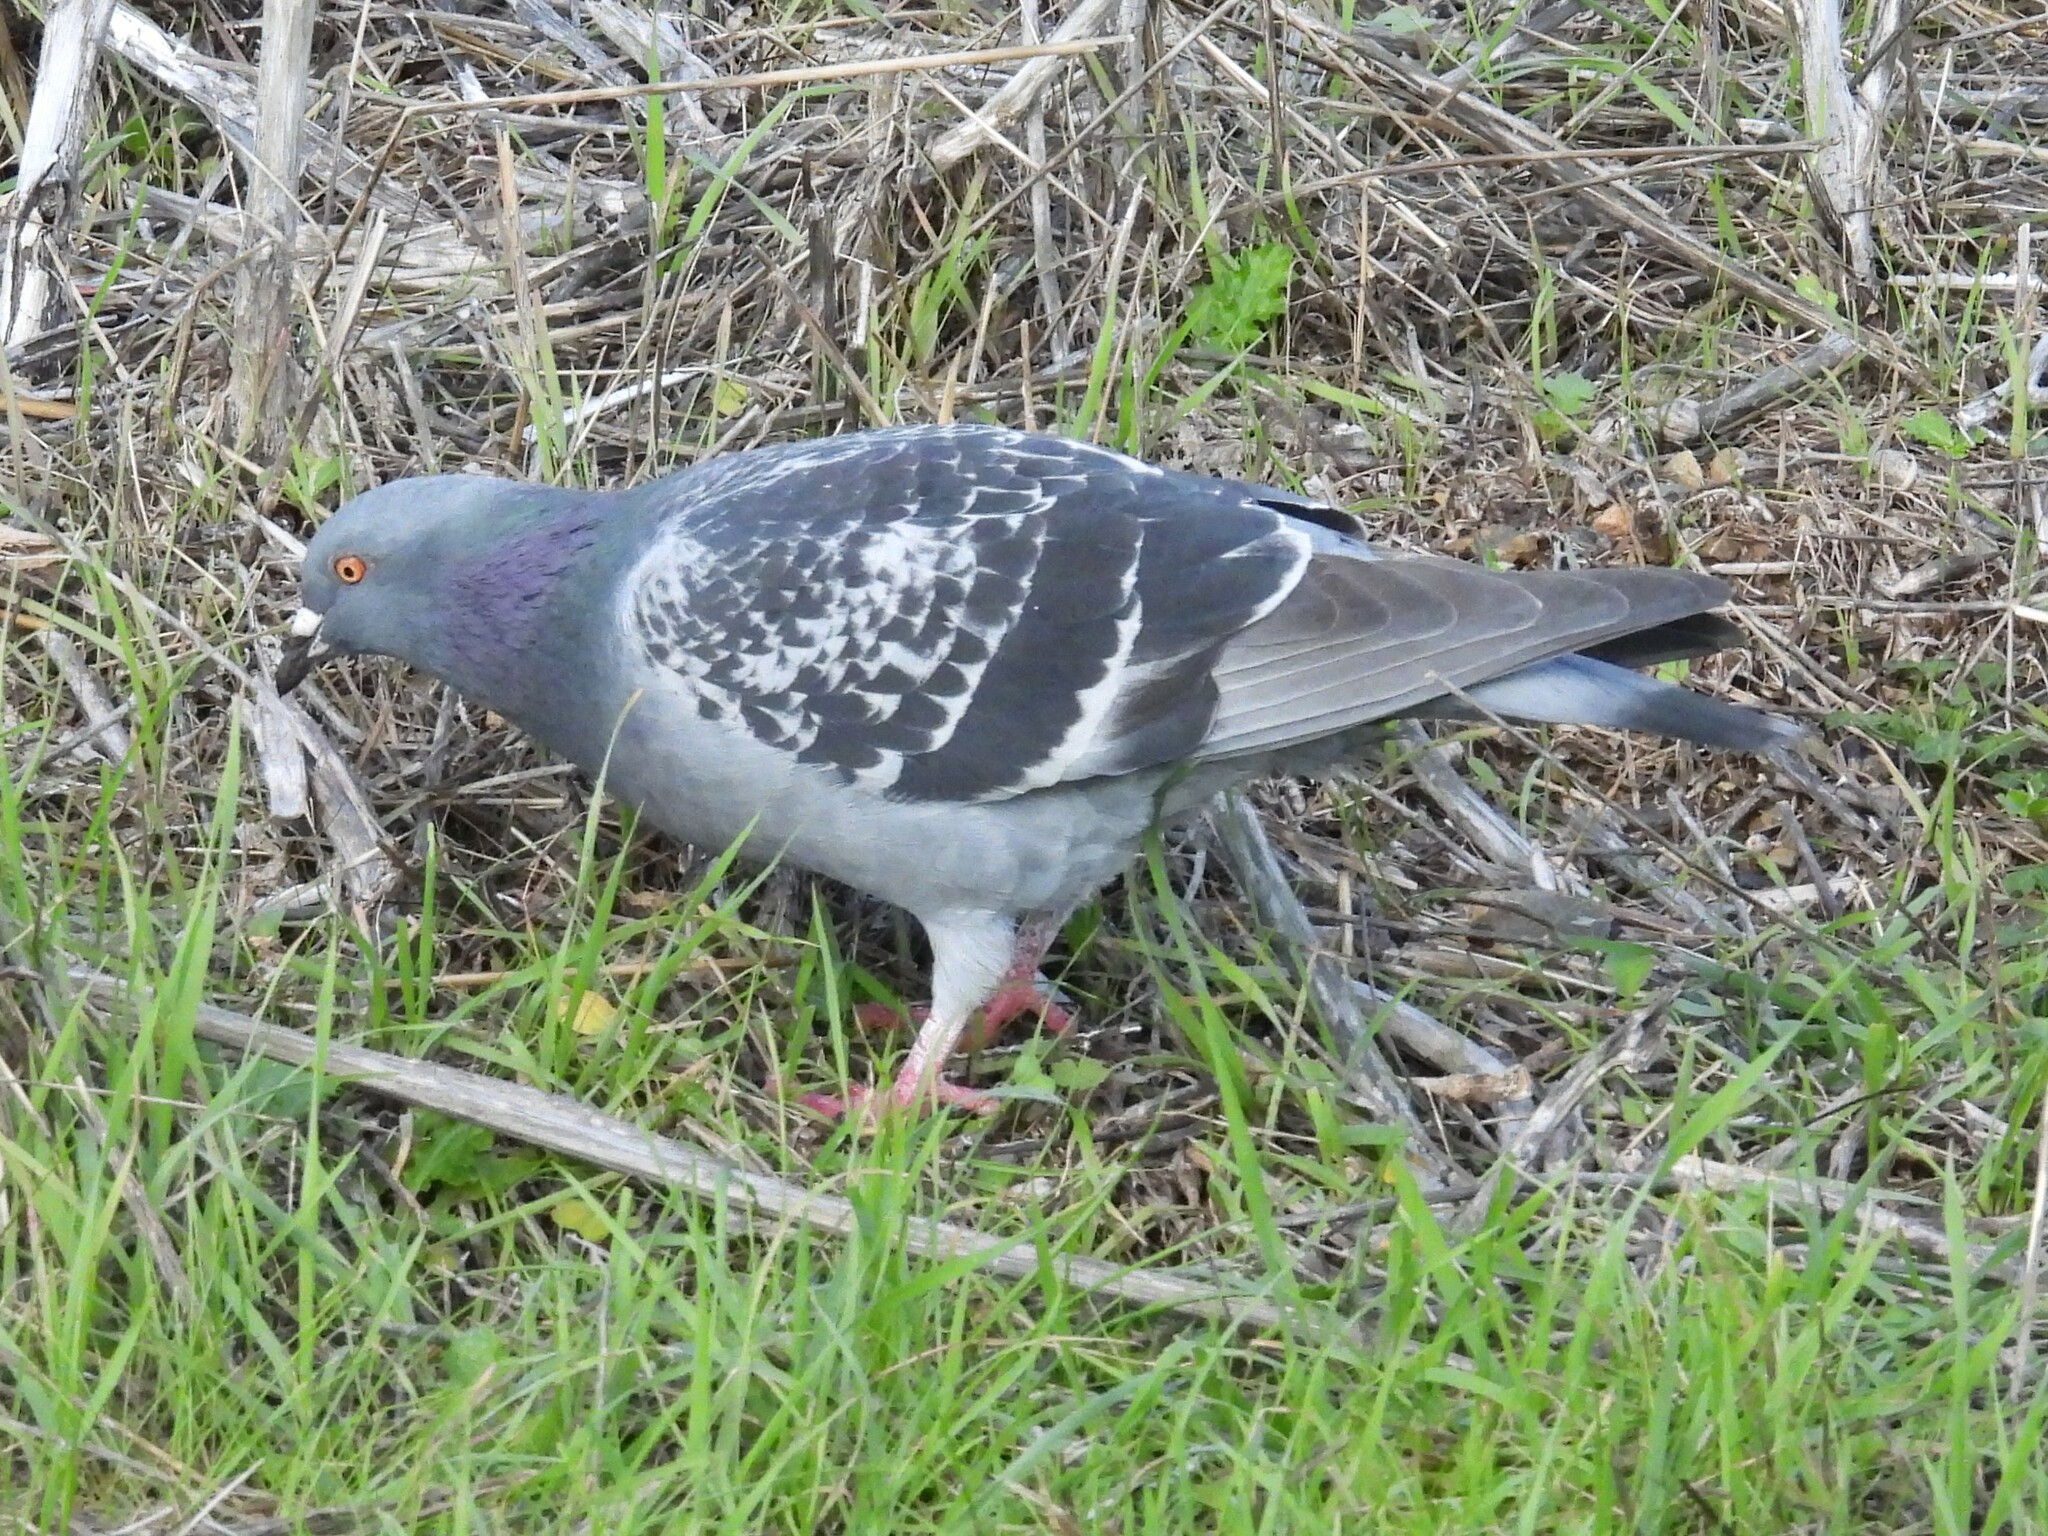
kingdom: Animalia
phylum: Chordata
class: Aves
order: Columbiformes
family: Columbidae
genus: Columba
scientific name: Columba livia
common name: Rock pigeon
